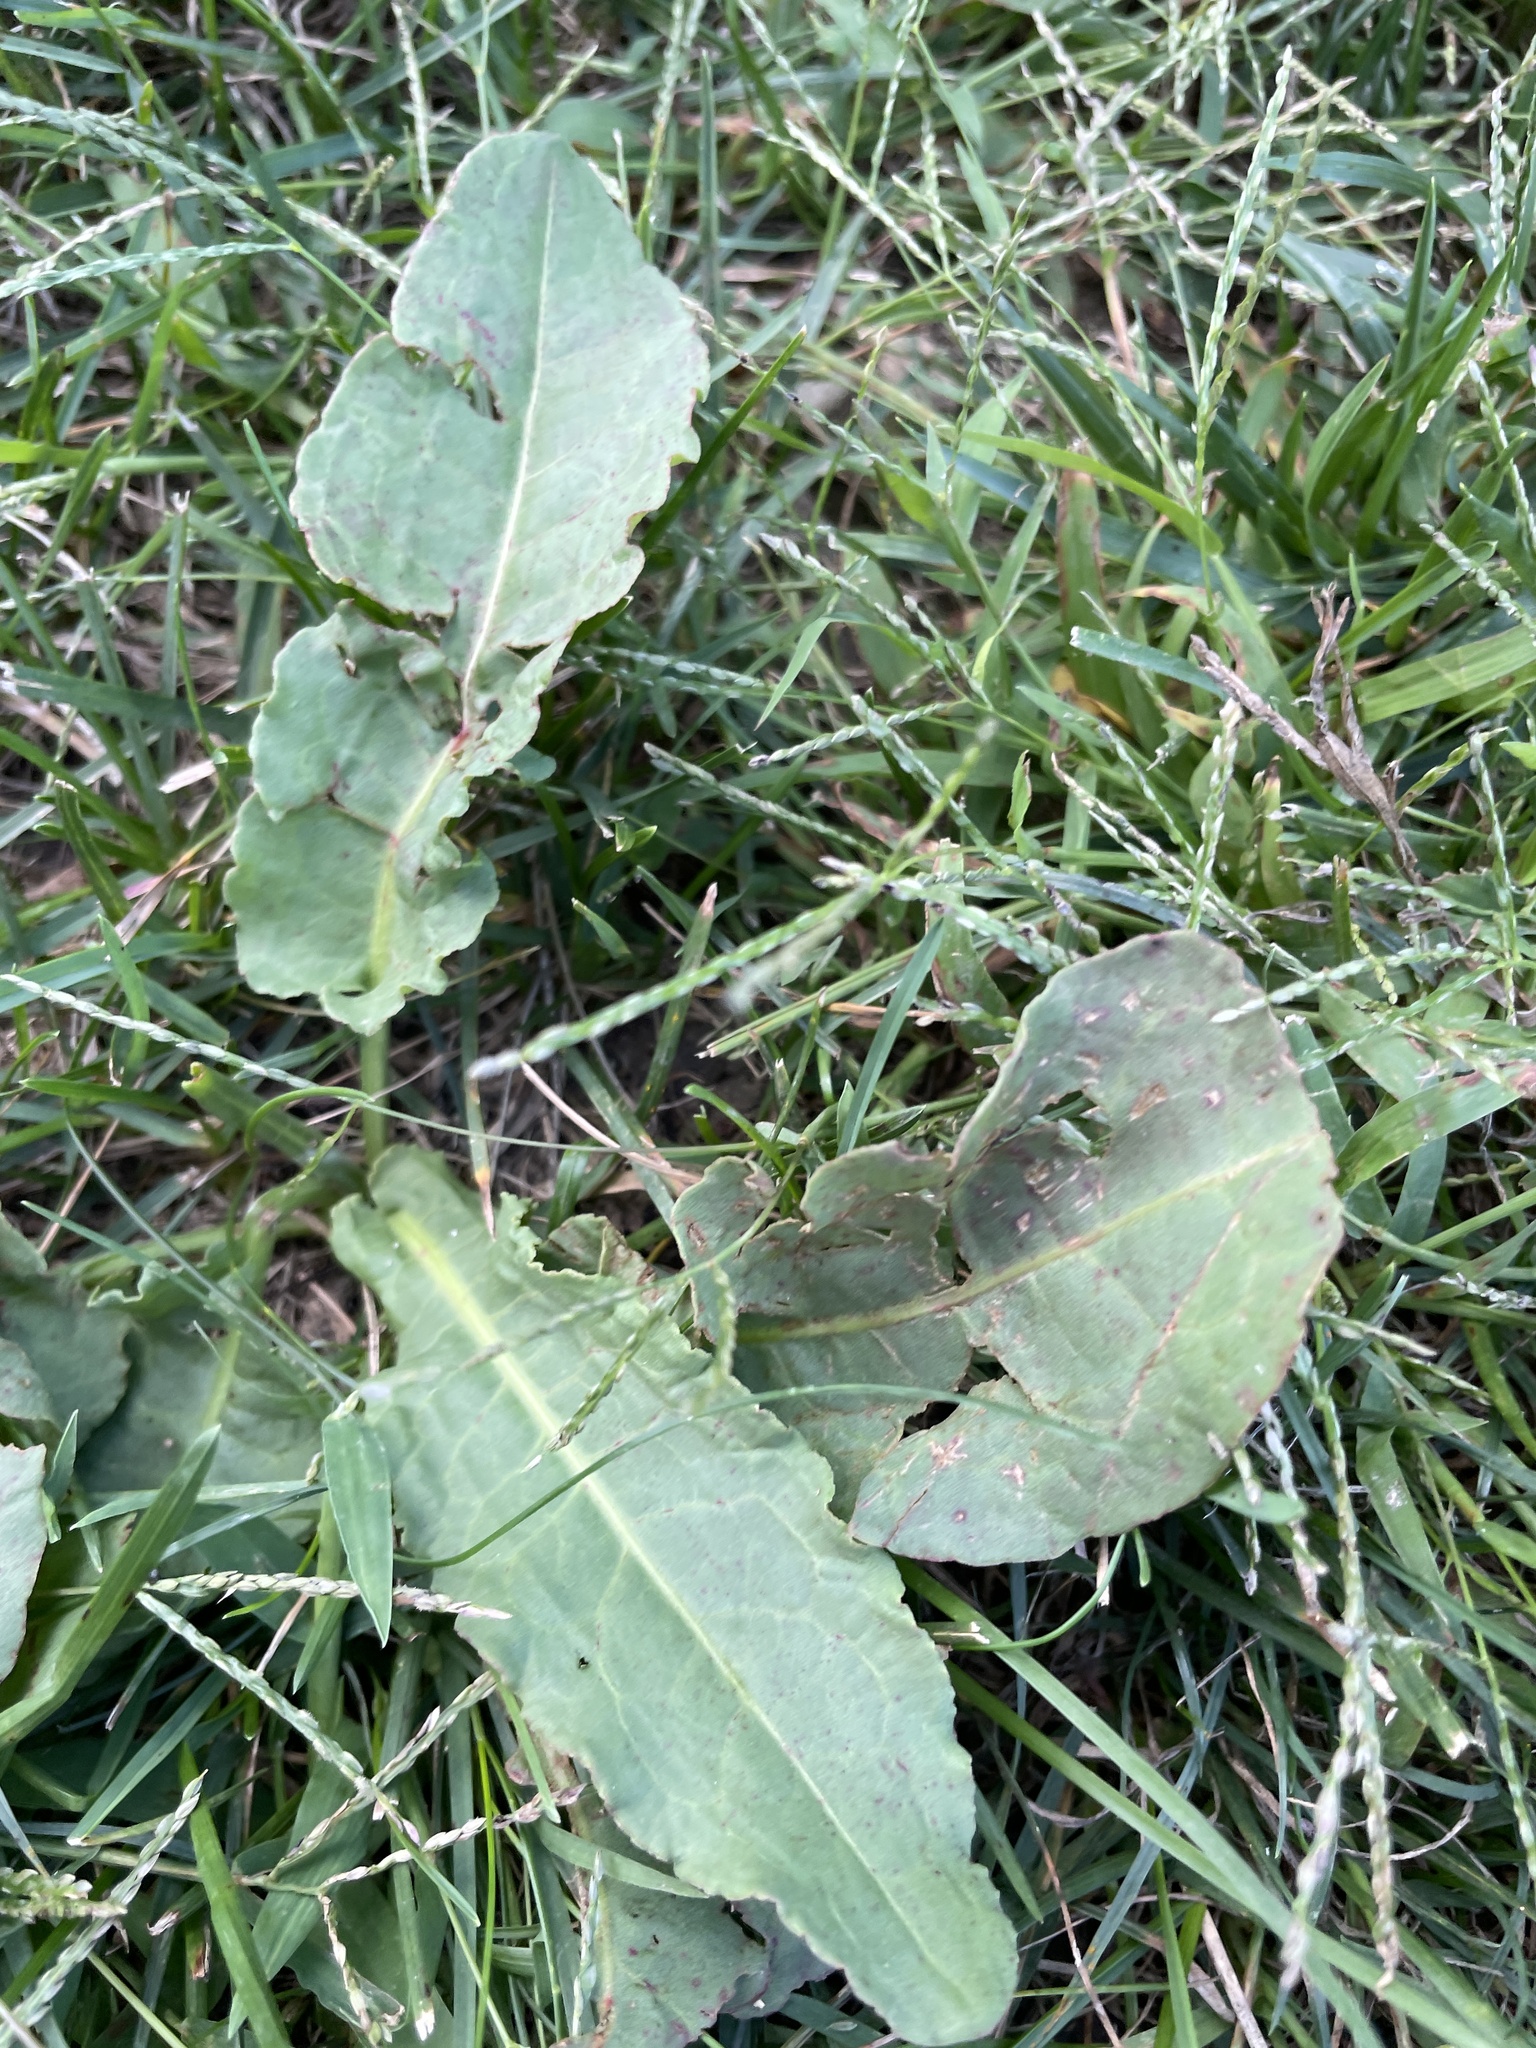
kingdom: Plantae
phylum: Tracheophyta
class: Magnoliopsida
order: Caryophyllales
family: Polygonaceae
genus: Rumex
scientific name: Rumex crispus
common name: Curled dock
